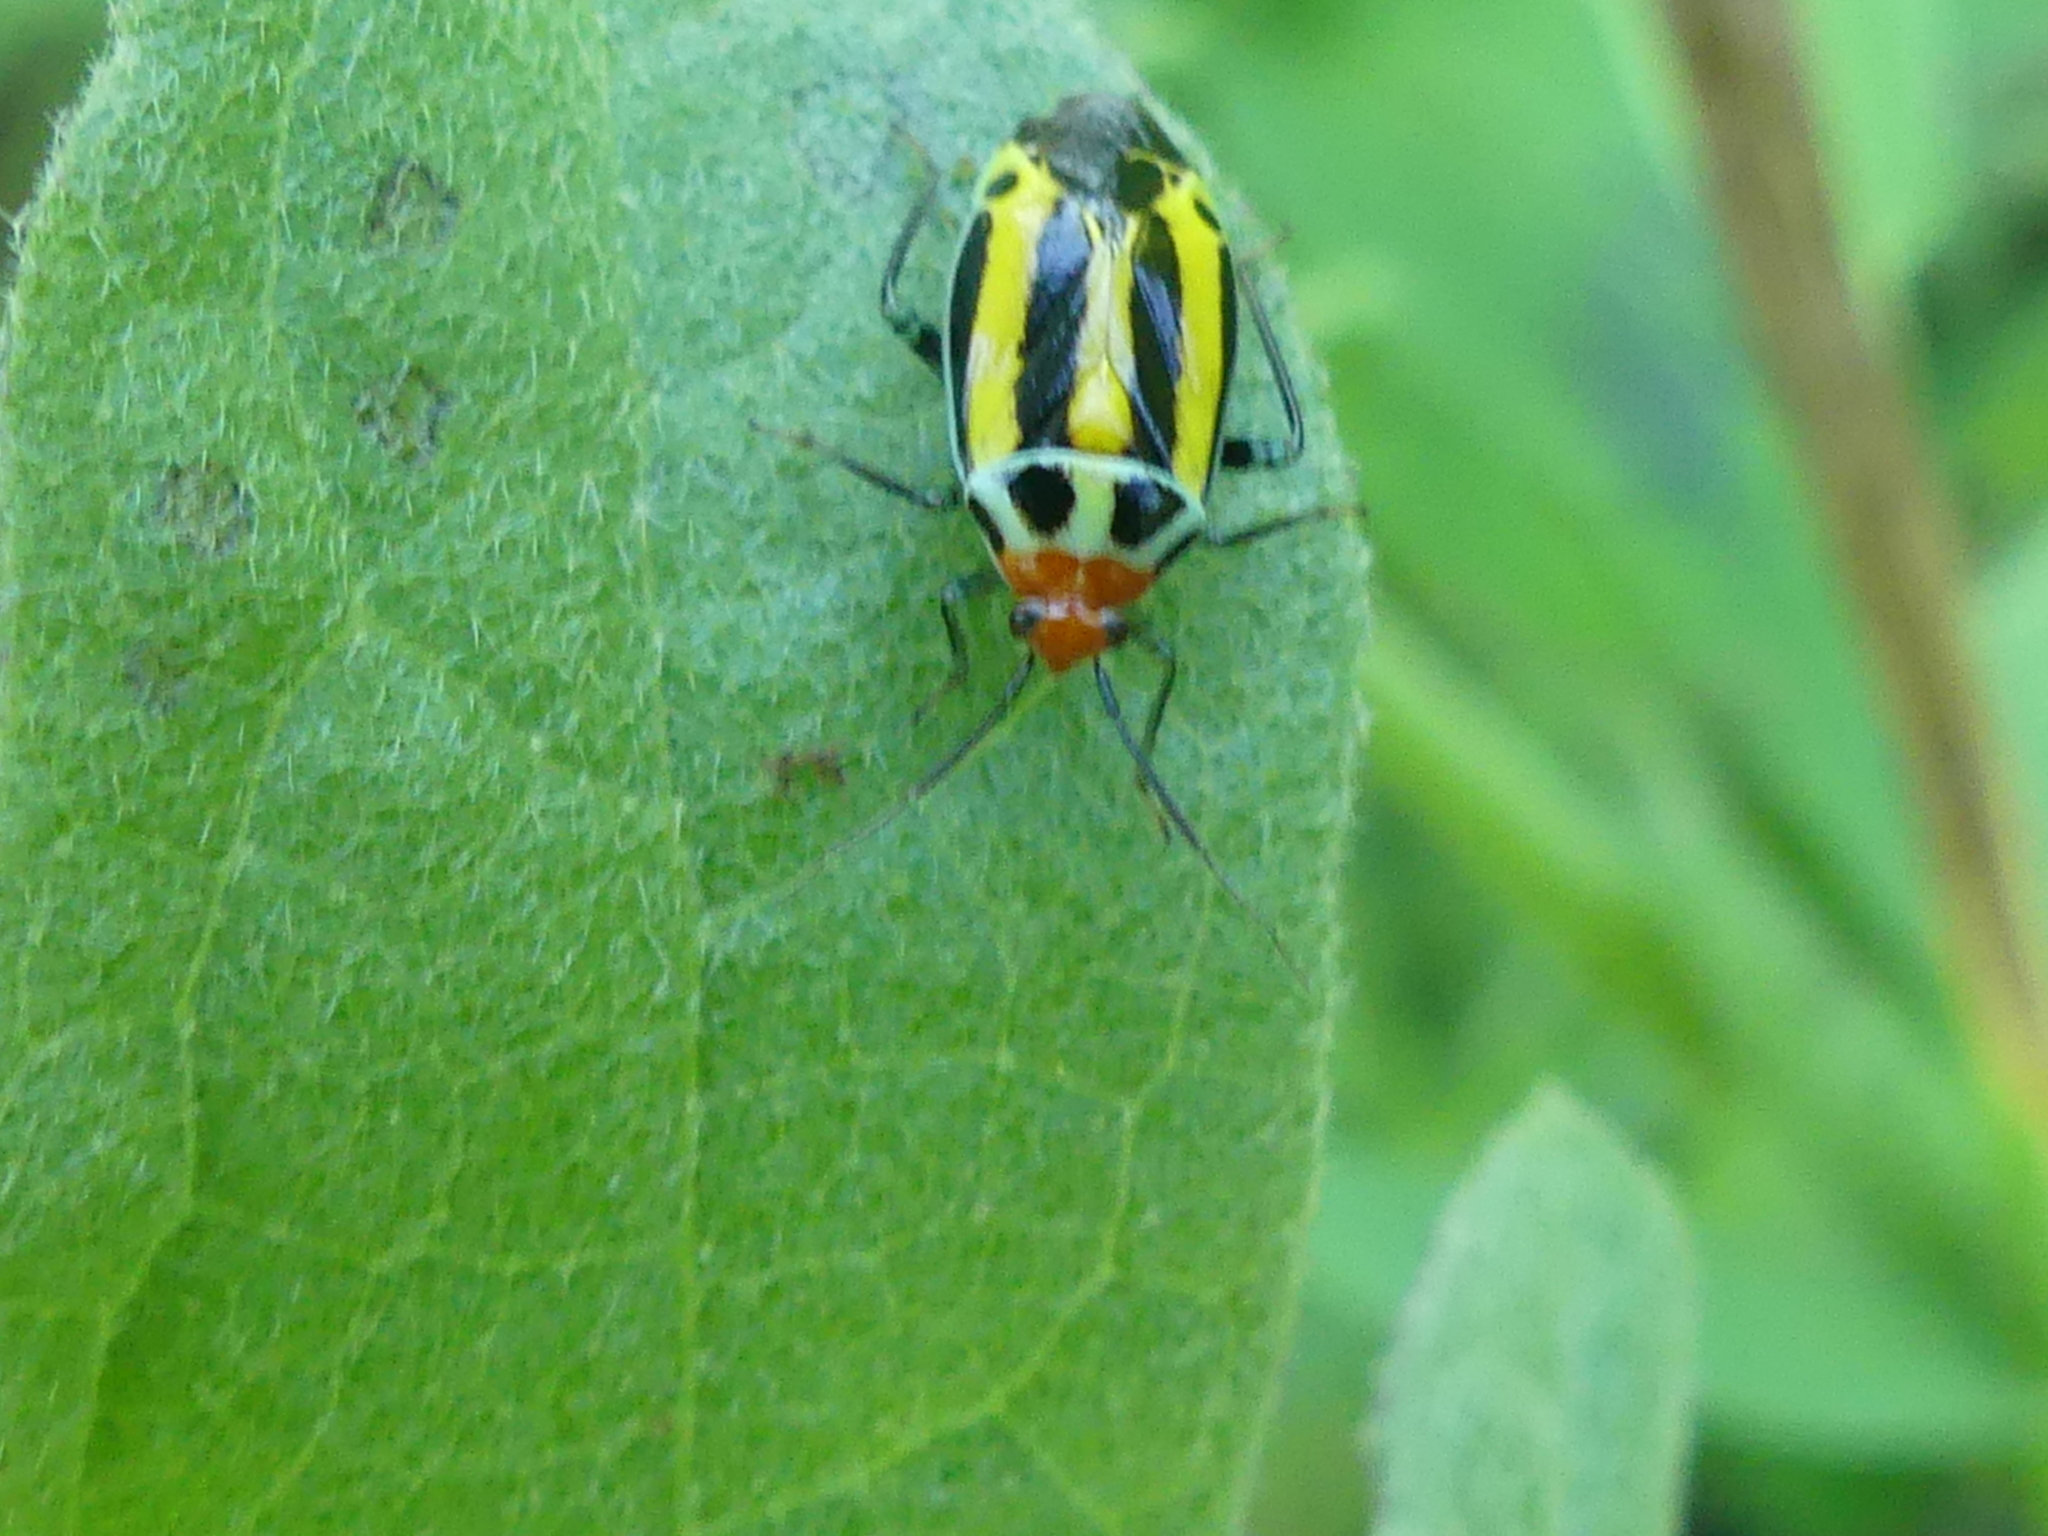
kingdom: Animalia
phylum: Arthropoda
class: Insecta
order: Hemiptera
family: Miridae
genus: Poecilocapsus
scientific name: Poecilocapsus lineatus
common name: Four-lined plant bug
